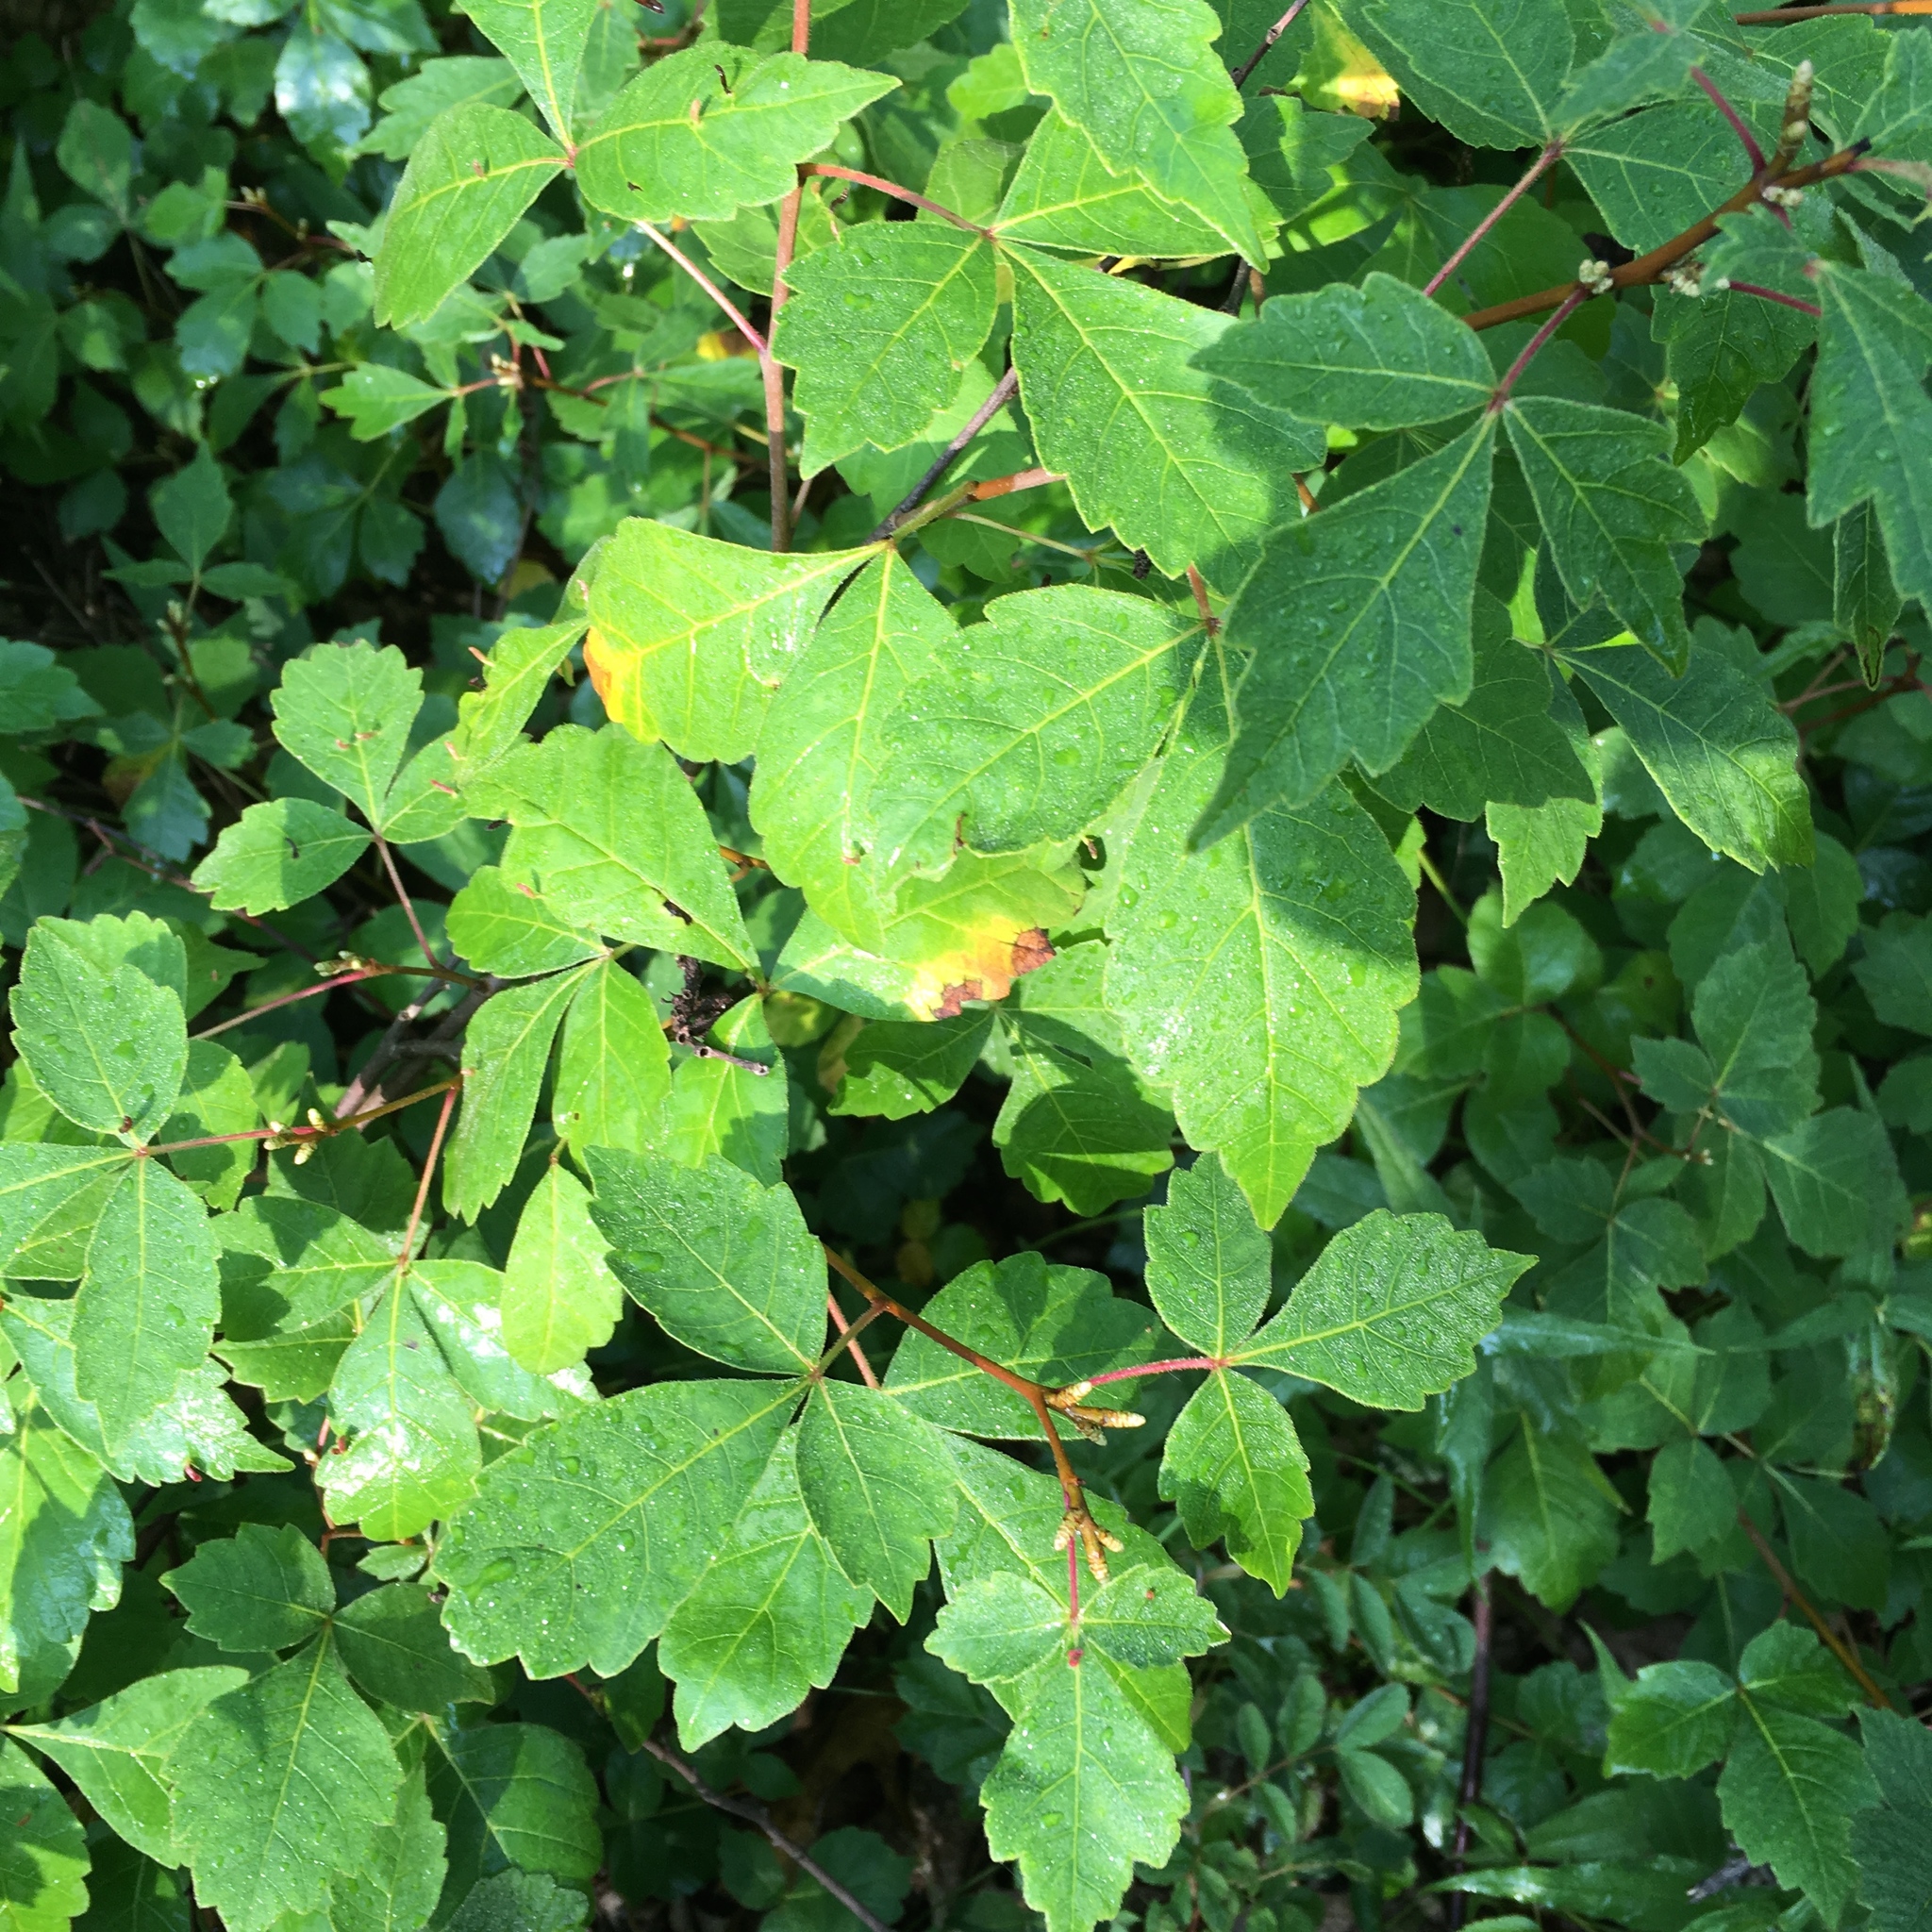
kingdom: Plantae
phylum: Tracheophyta
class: Magnoliopsida
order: Sapindales
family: Anacardiaceae
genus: Rhus
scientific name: Rhus aromatica
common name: Aromatic sumac
